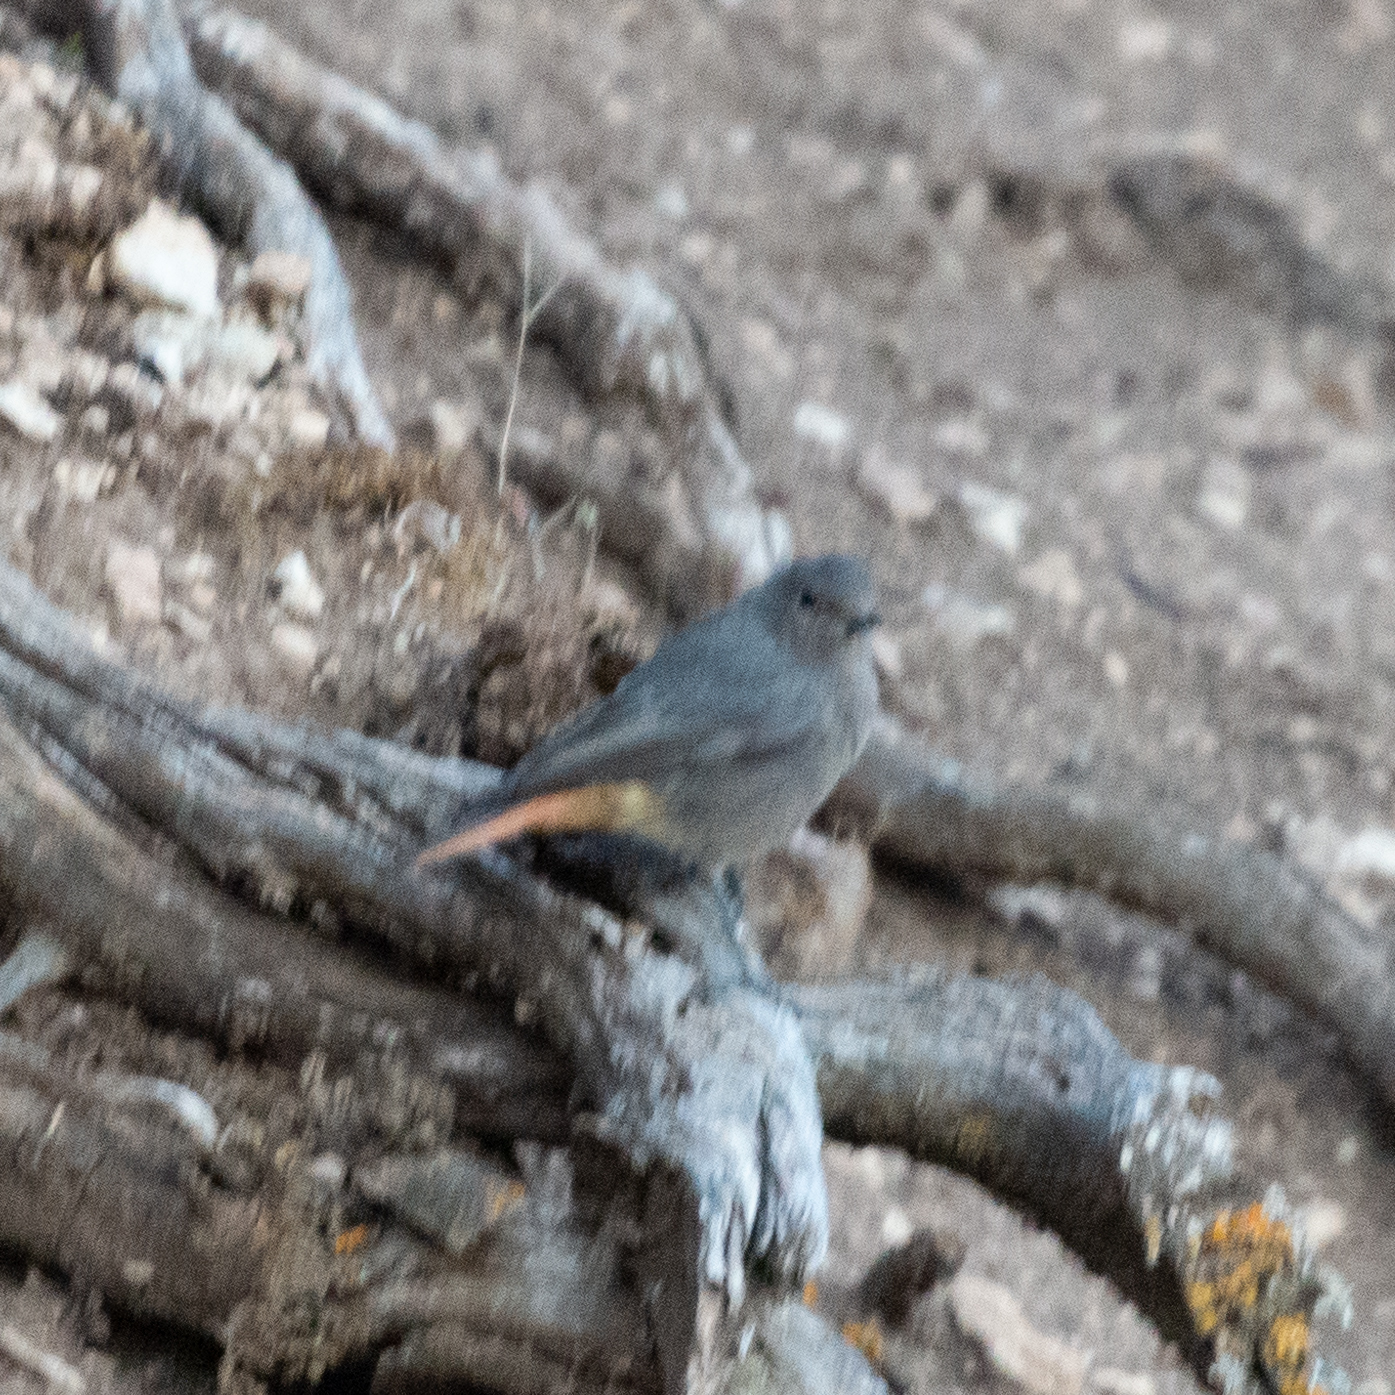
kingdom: Animalia
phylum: Chordata
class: Aves
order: Passeriformes
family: Muscicapidae
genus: Phoenicurus
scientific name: Phoenicurus ochruros
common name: Black redstart
